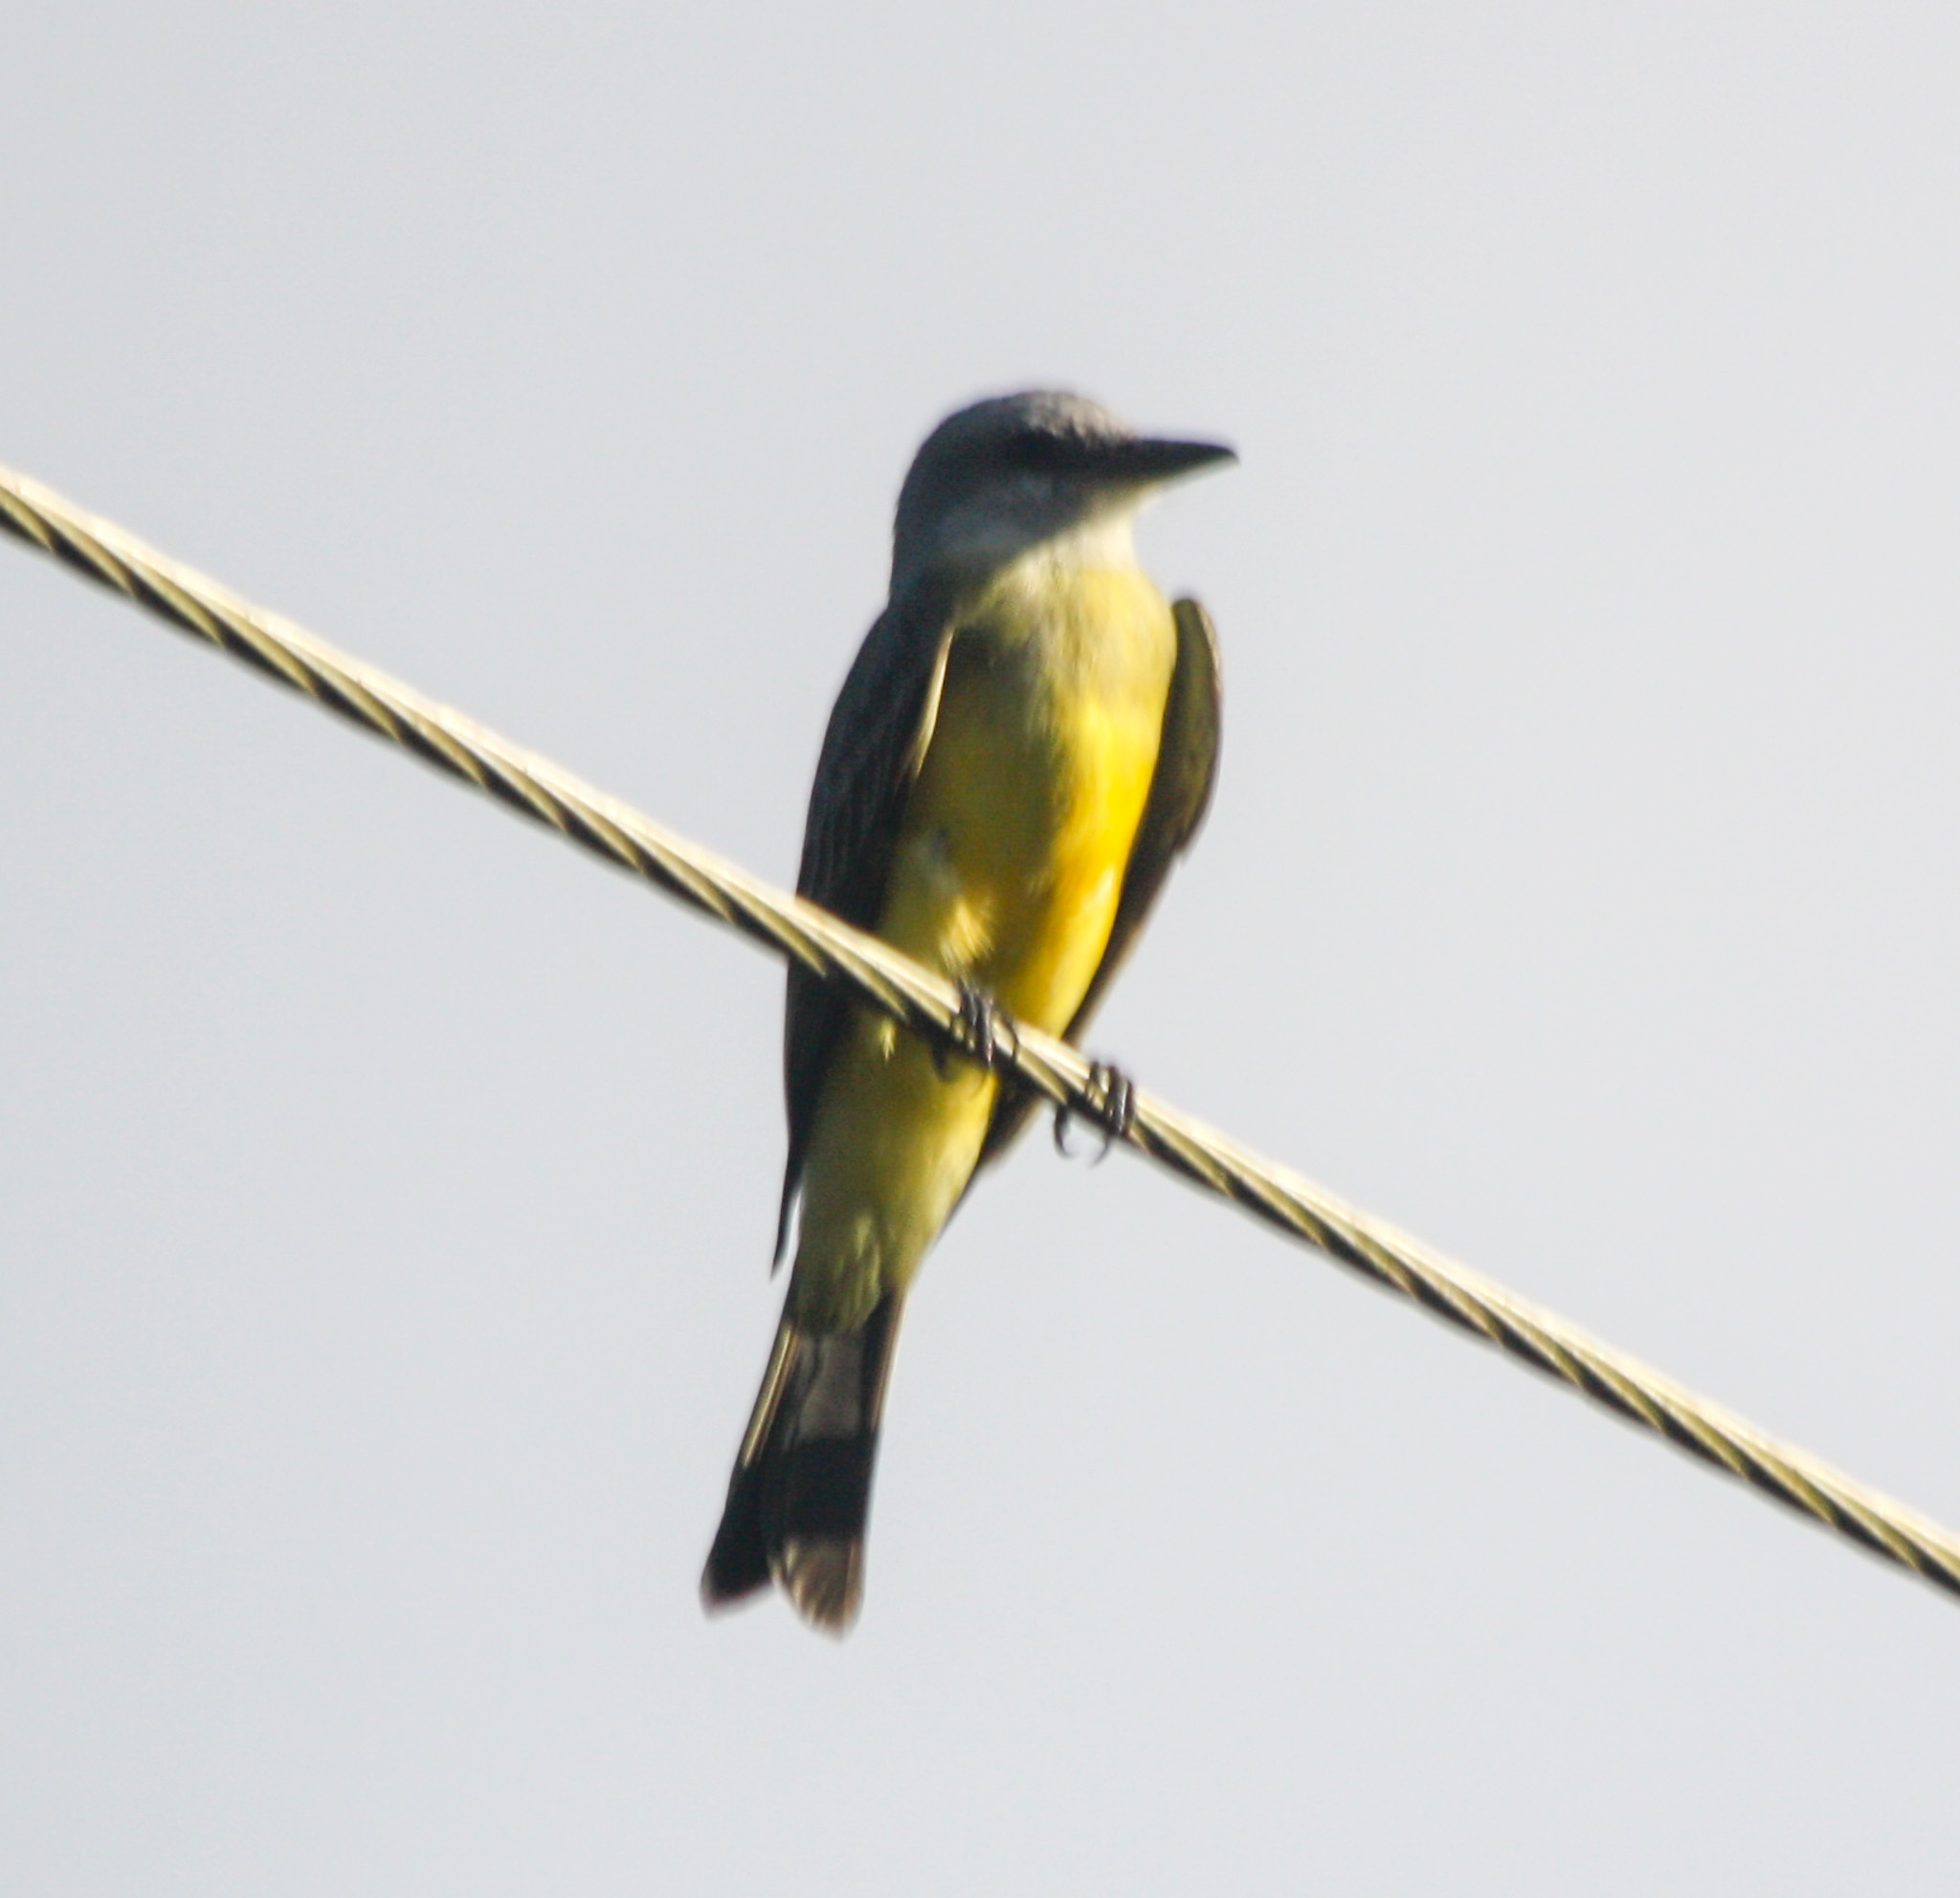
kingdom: Animalia
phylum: Chordata
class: Aves
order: Passeriformes
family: Tyrannidae
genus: Tyrannus
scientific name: Tyrannus melancholicus
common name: Tropical kingbird
